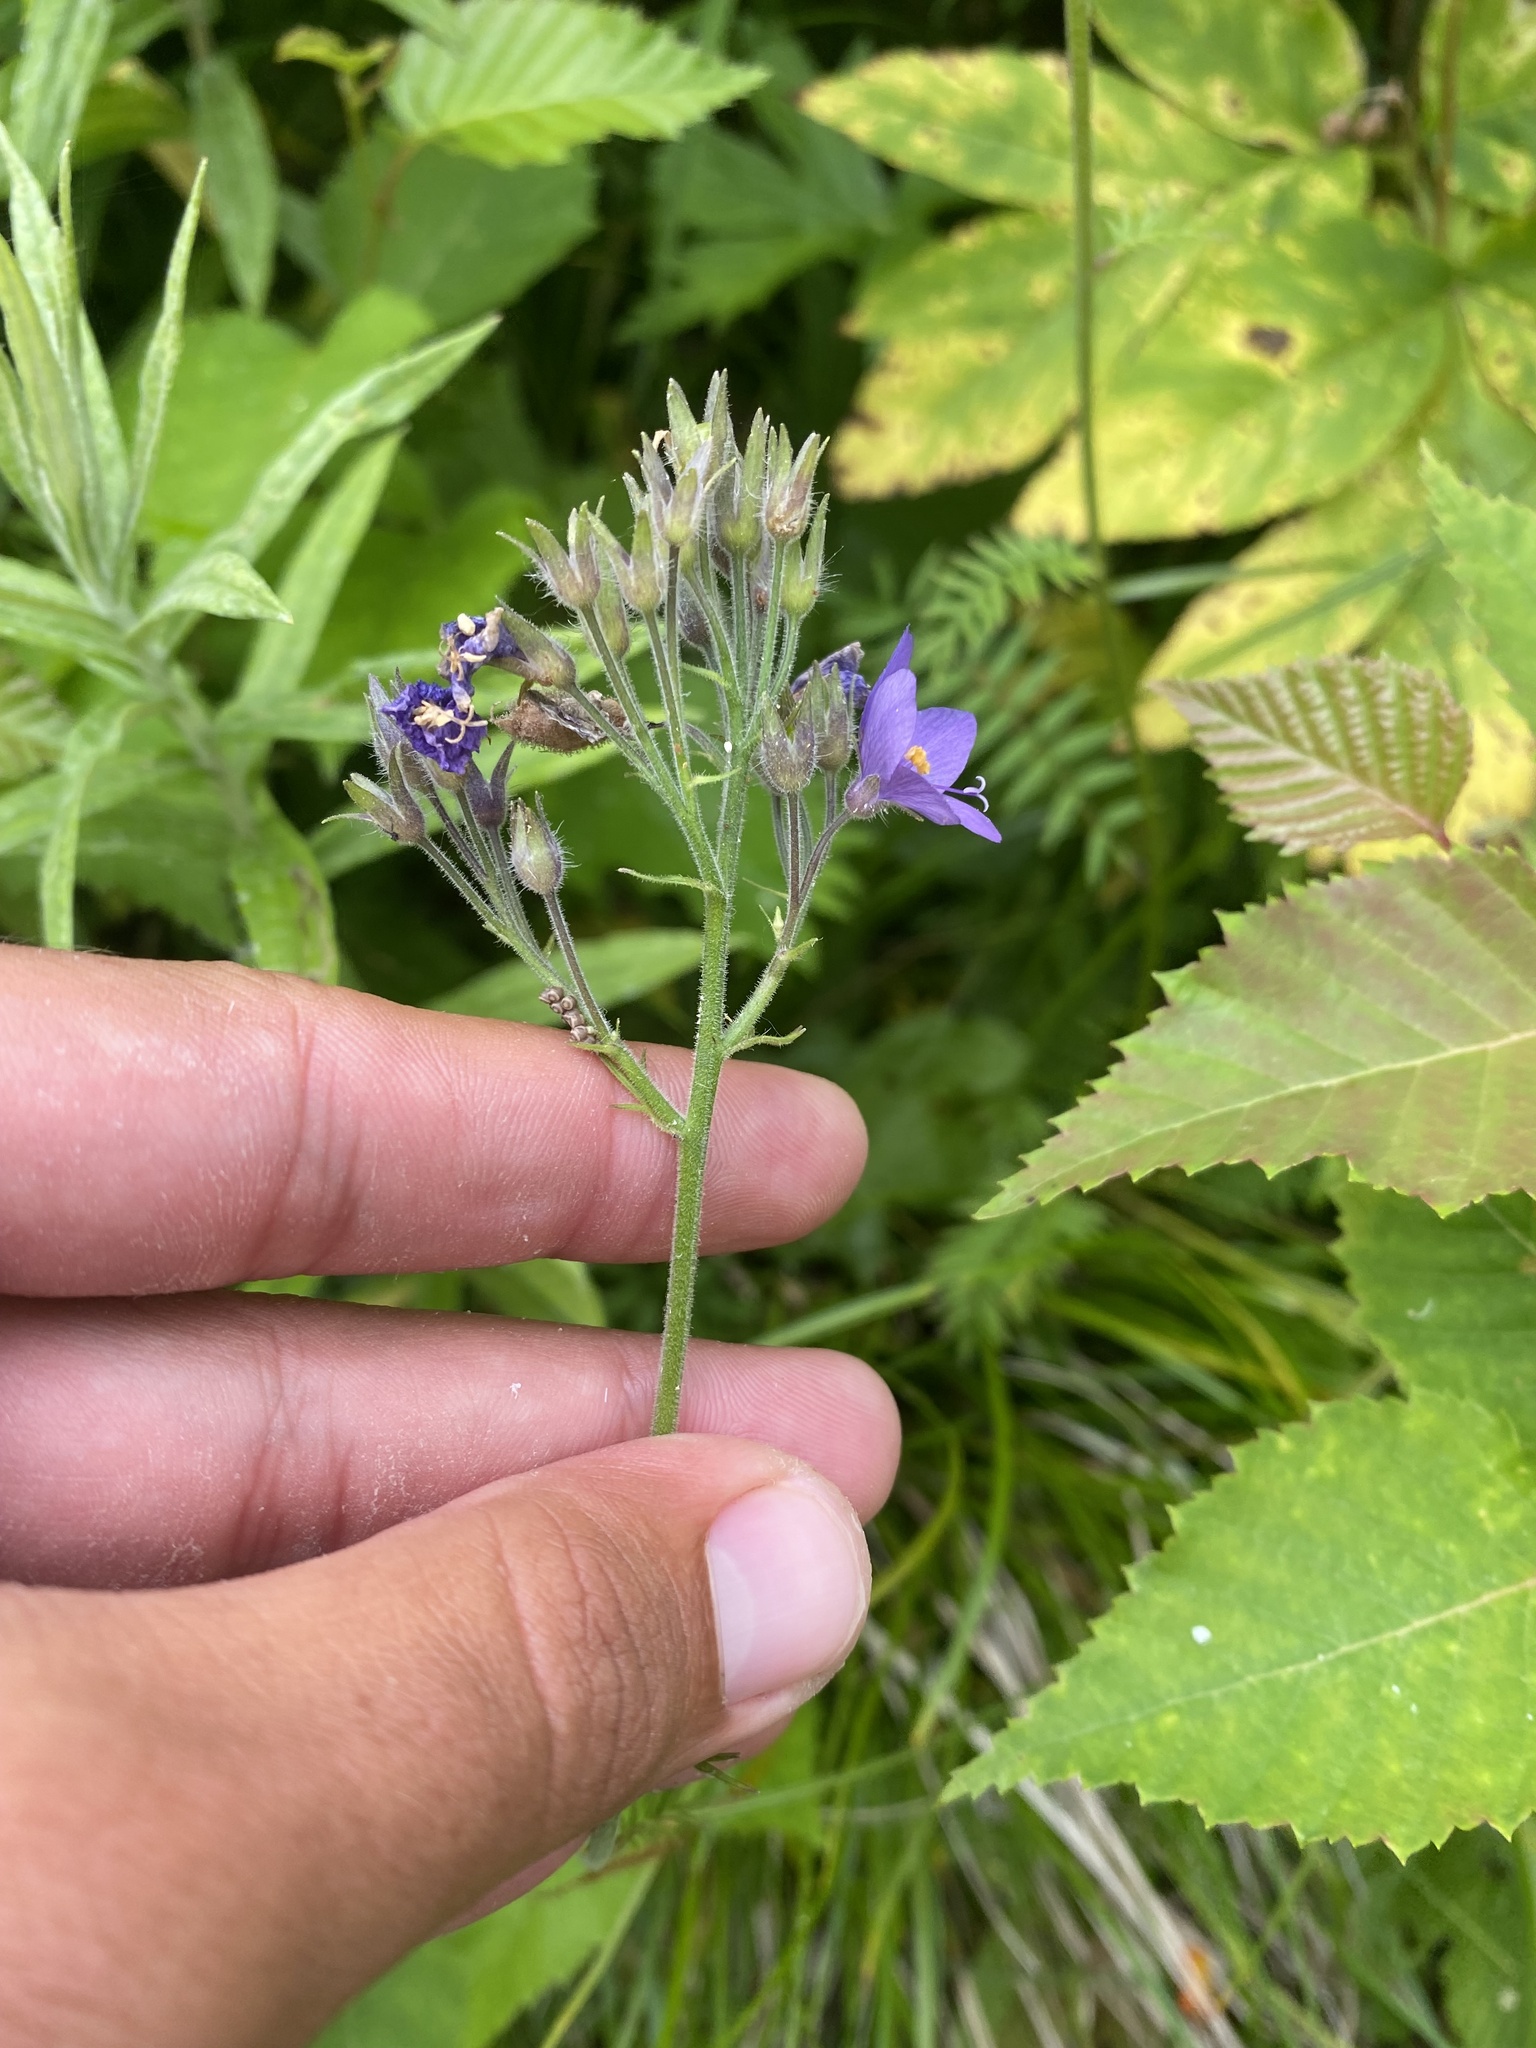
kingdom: Plantae
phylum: Tracheophyta
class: Magnoliopsida
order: Ericales
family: Polemoniaceae
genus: Polemonium
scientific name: Polemonium acutiflorum
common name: Tall jacob's-ladder
